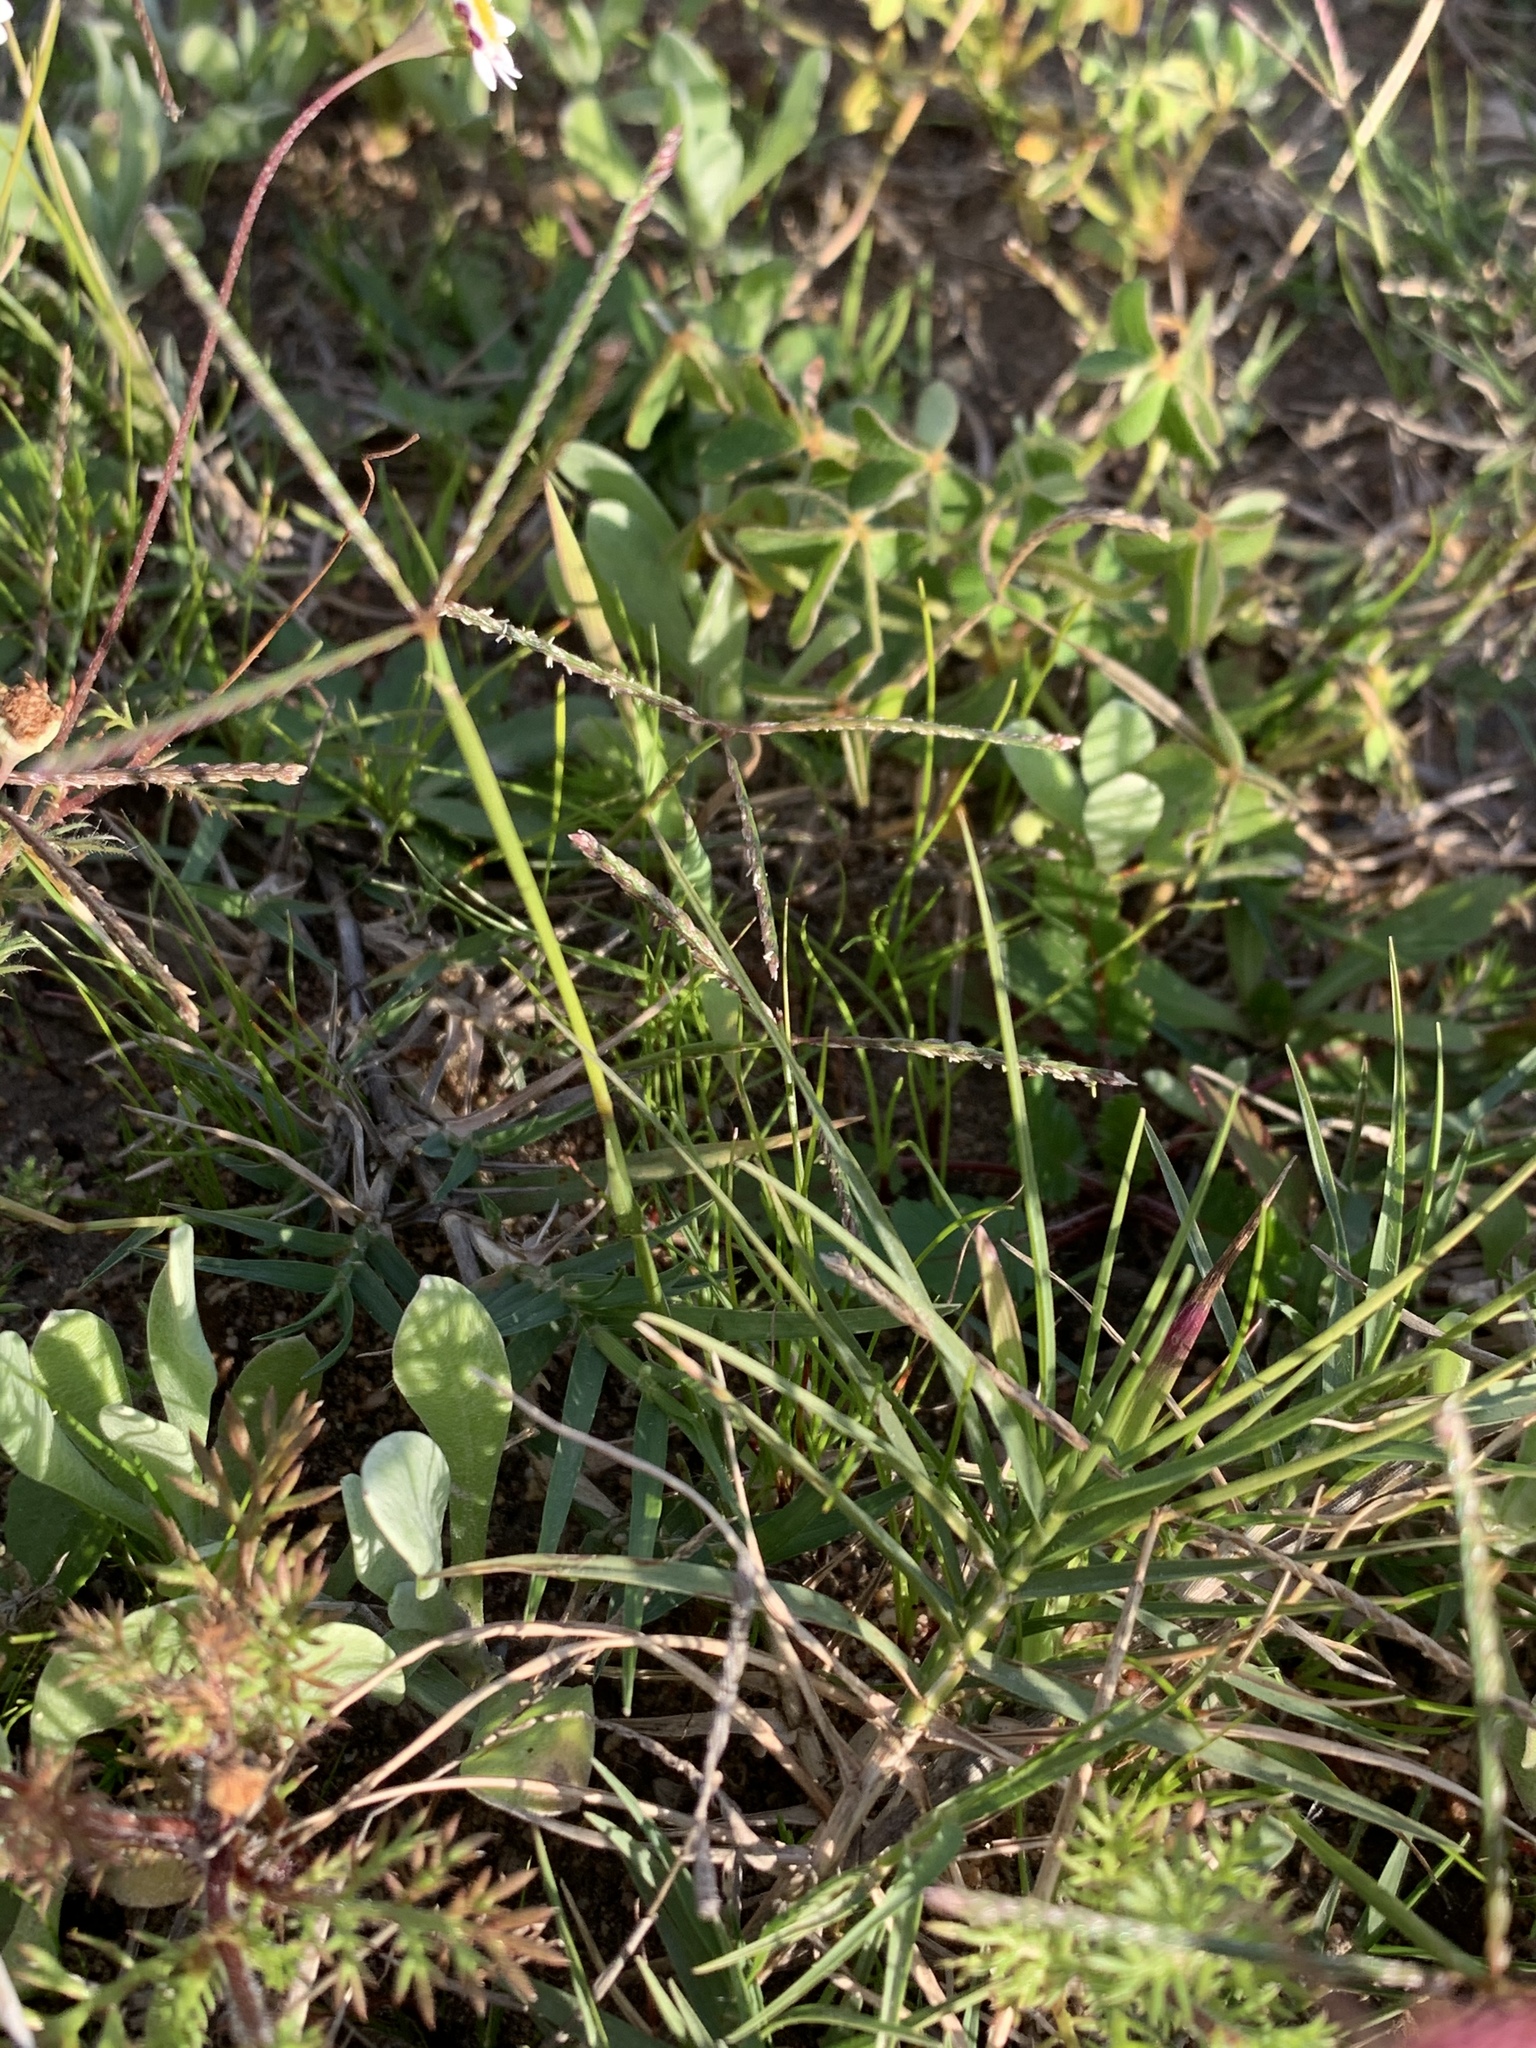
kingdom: Plantae
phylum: Tracheophyta
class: Liliopsida
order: Poales
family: Poaceae
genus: Cynodon
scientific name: Cynodon dactylon
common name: Bermuda grass
